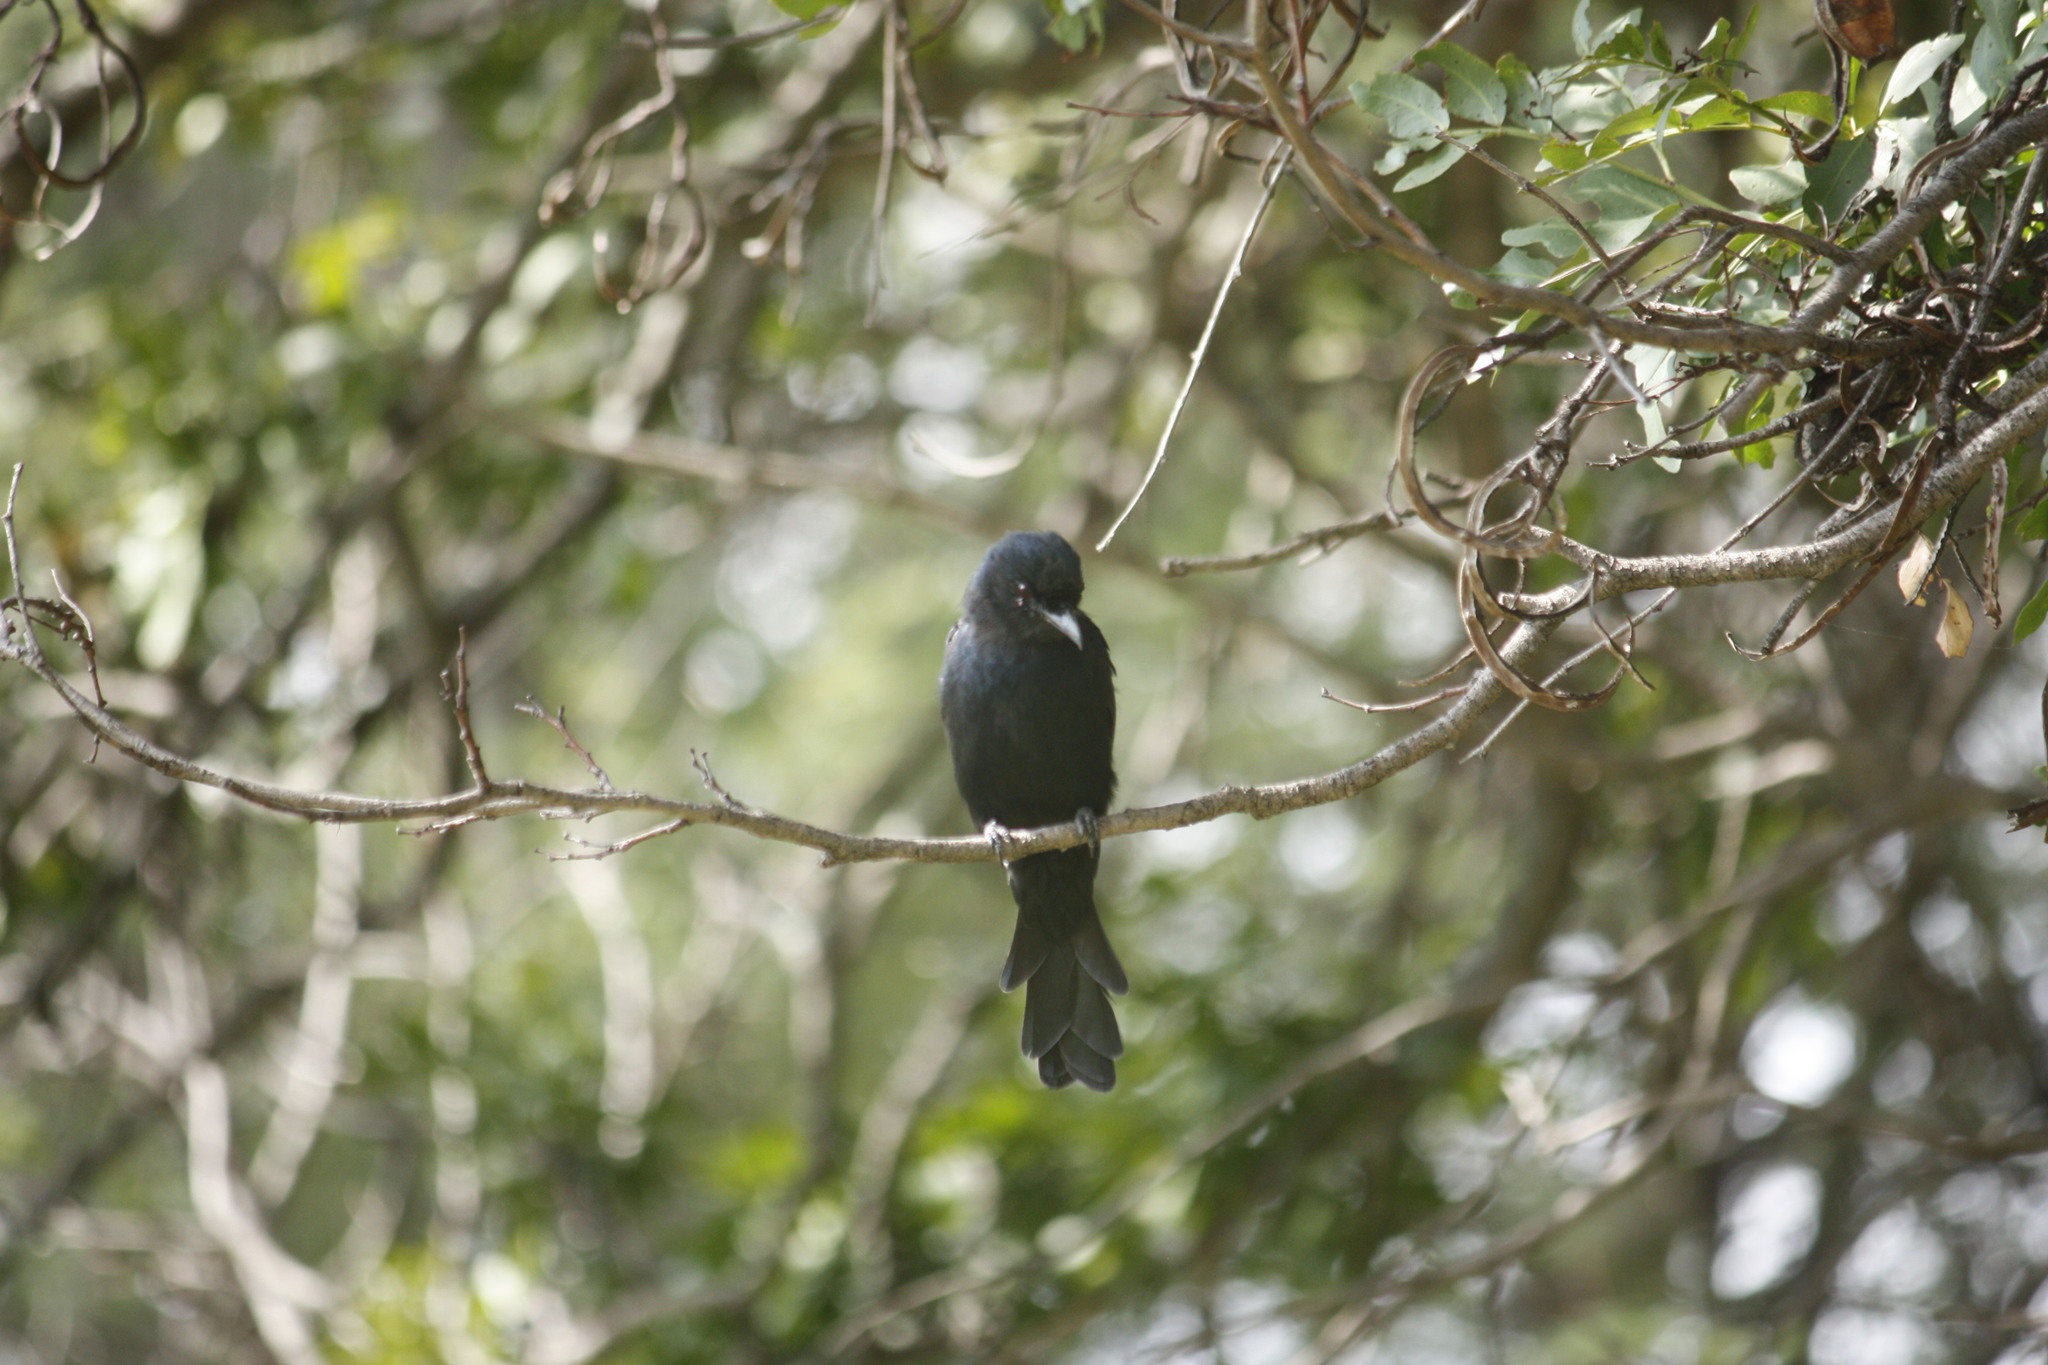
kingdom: Animalia
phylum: Chordata
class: Aves
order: Passeriformes
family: Muscicapidae
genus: Melaenornis
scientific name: Melaenornis pammelaina
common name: Southern black flycatcher
